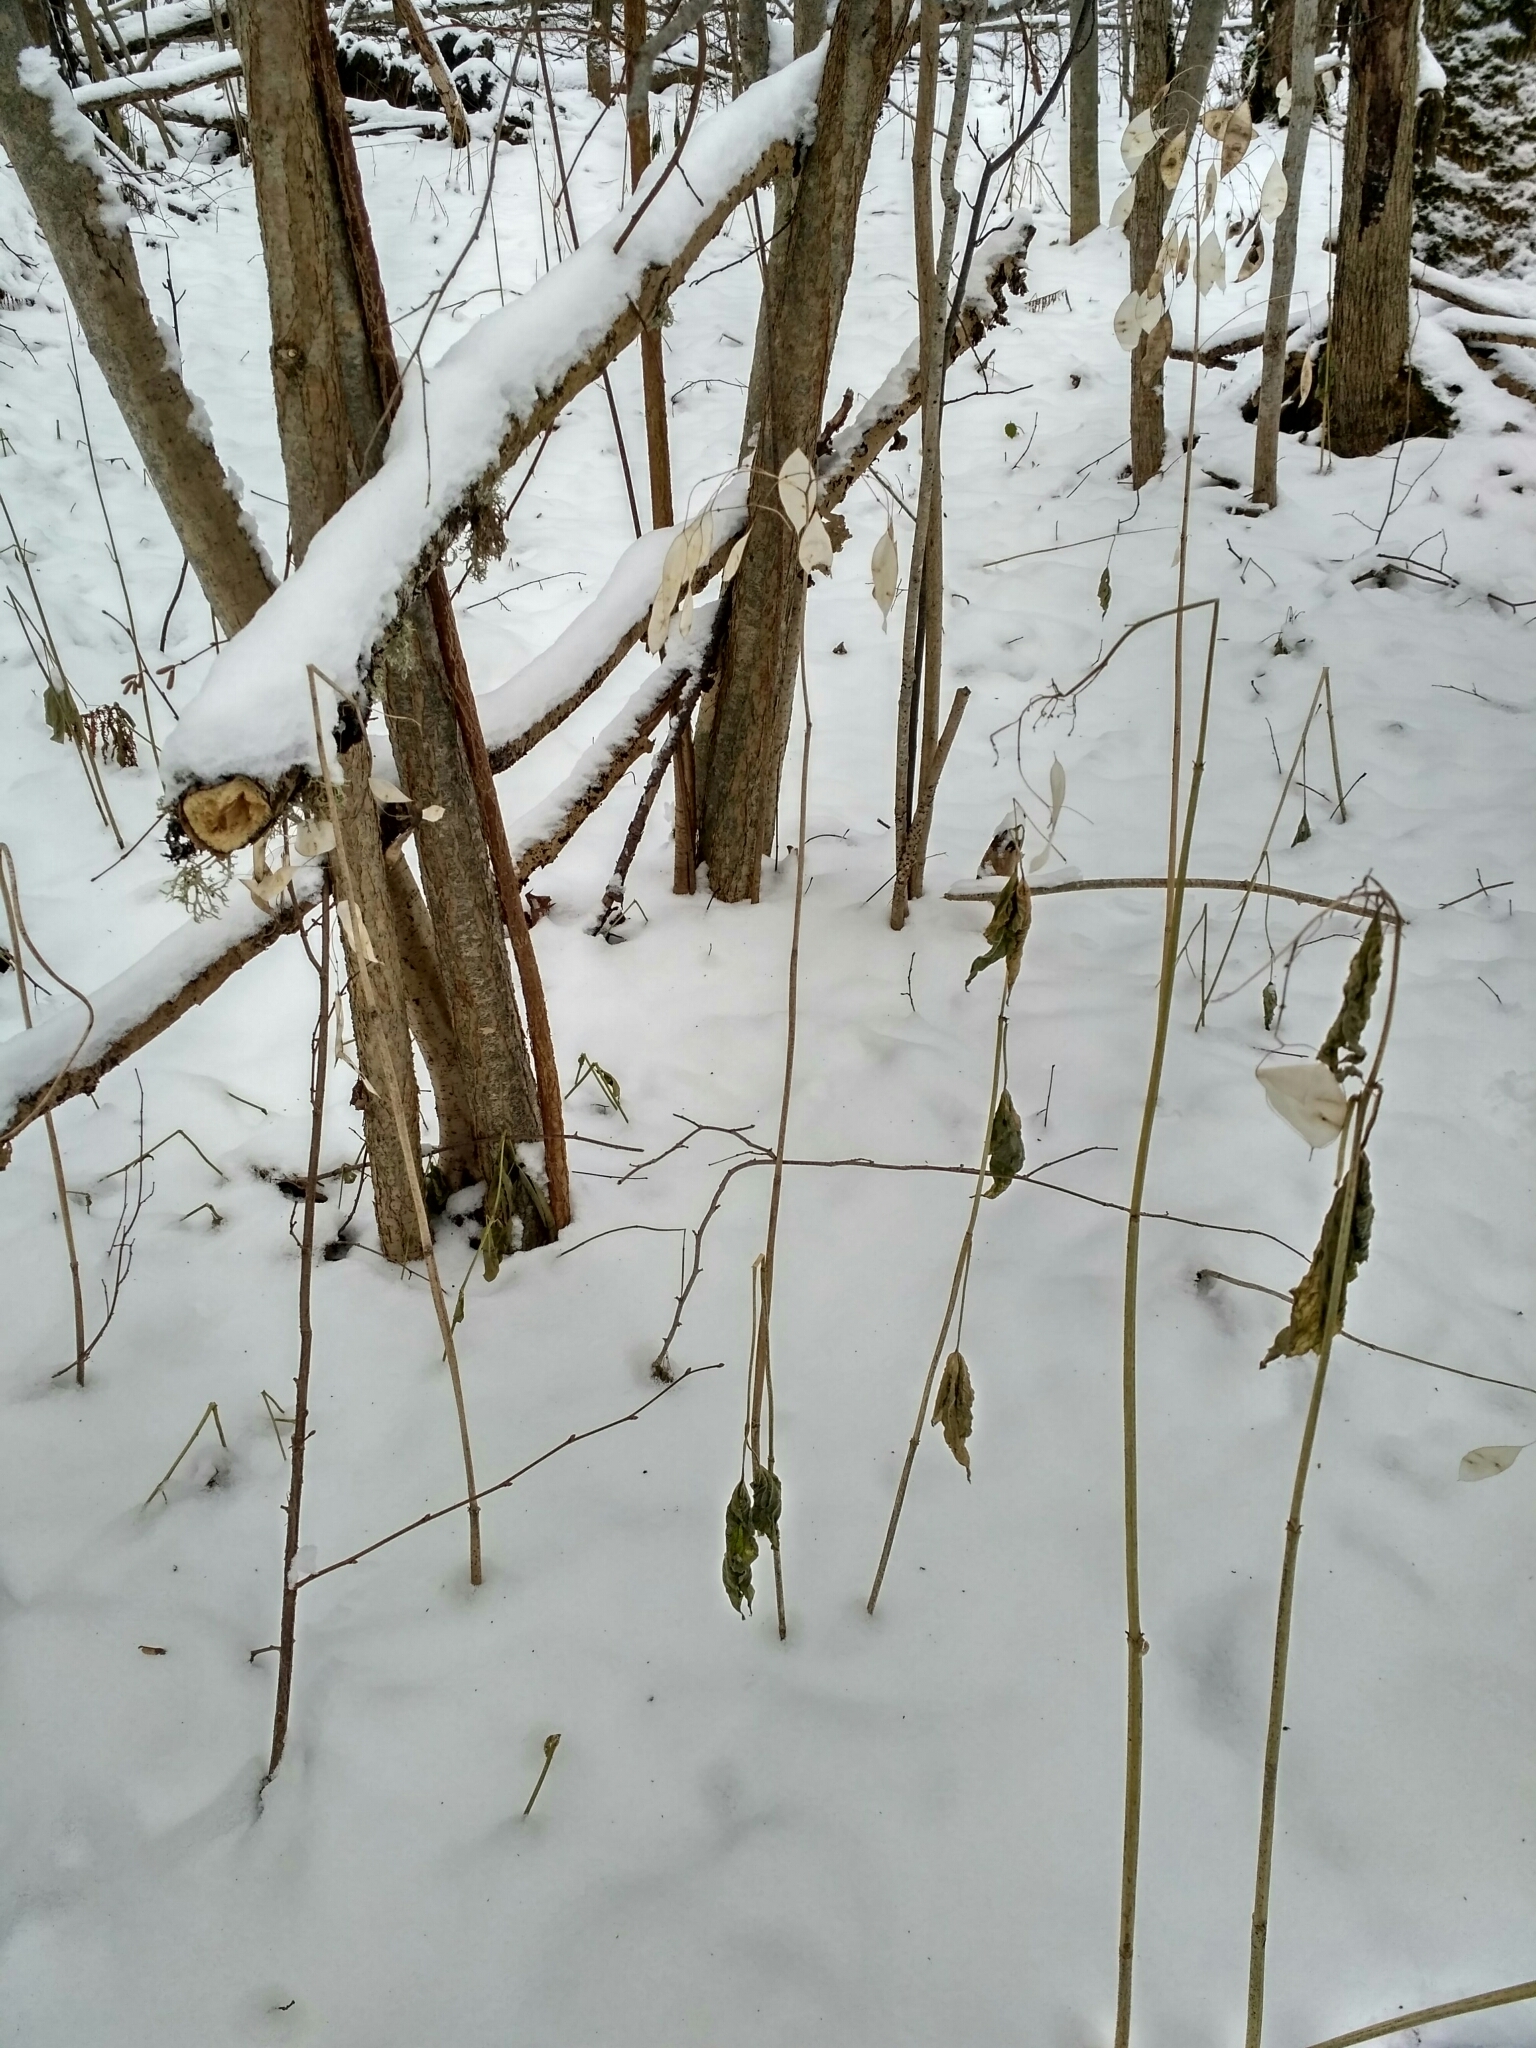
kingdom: Plantae
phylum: Tracheophyta
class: Magnoliopsida
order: Brassicales
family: Brassicaceae
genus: Lunaria
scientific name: Lunaria rediviva
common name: Perennial honesty
